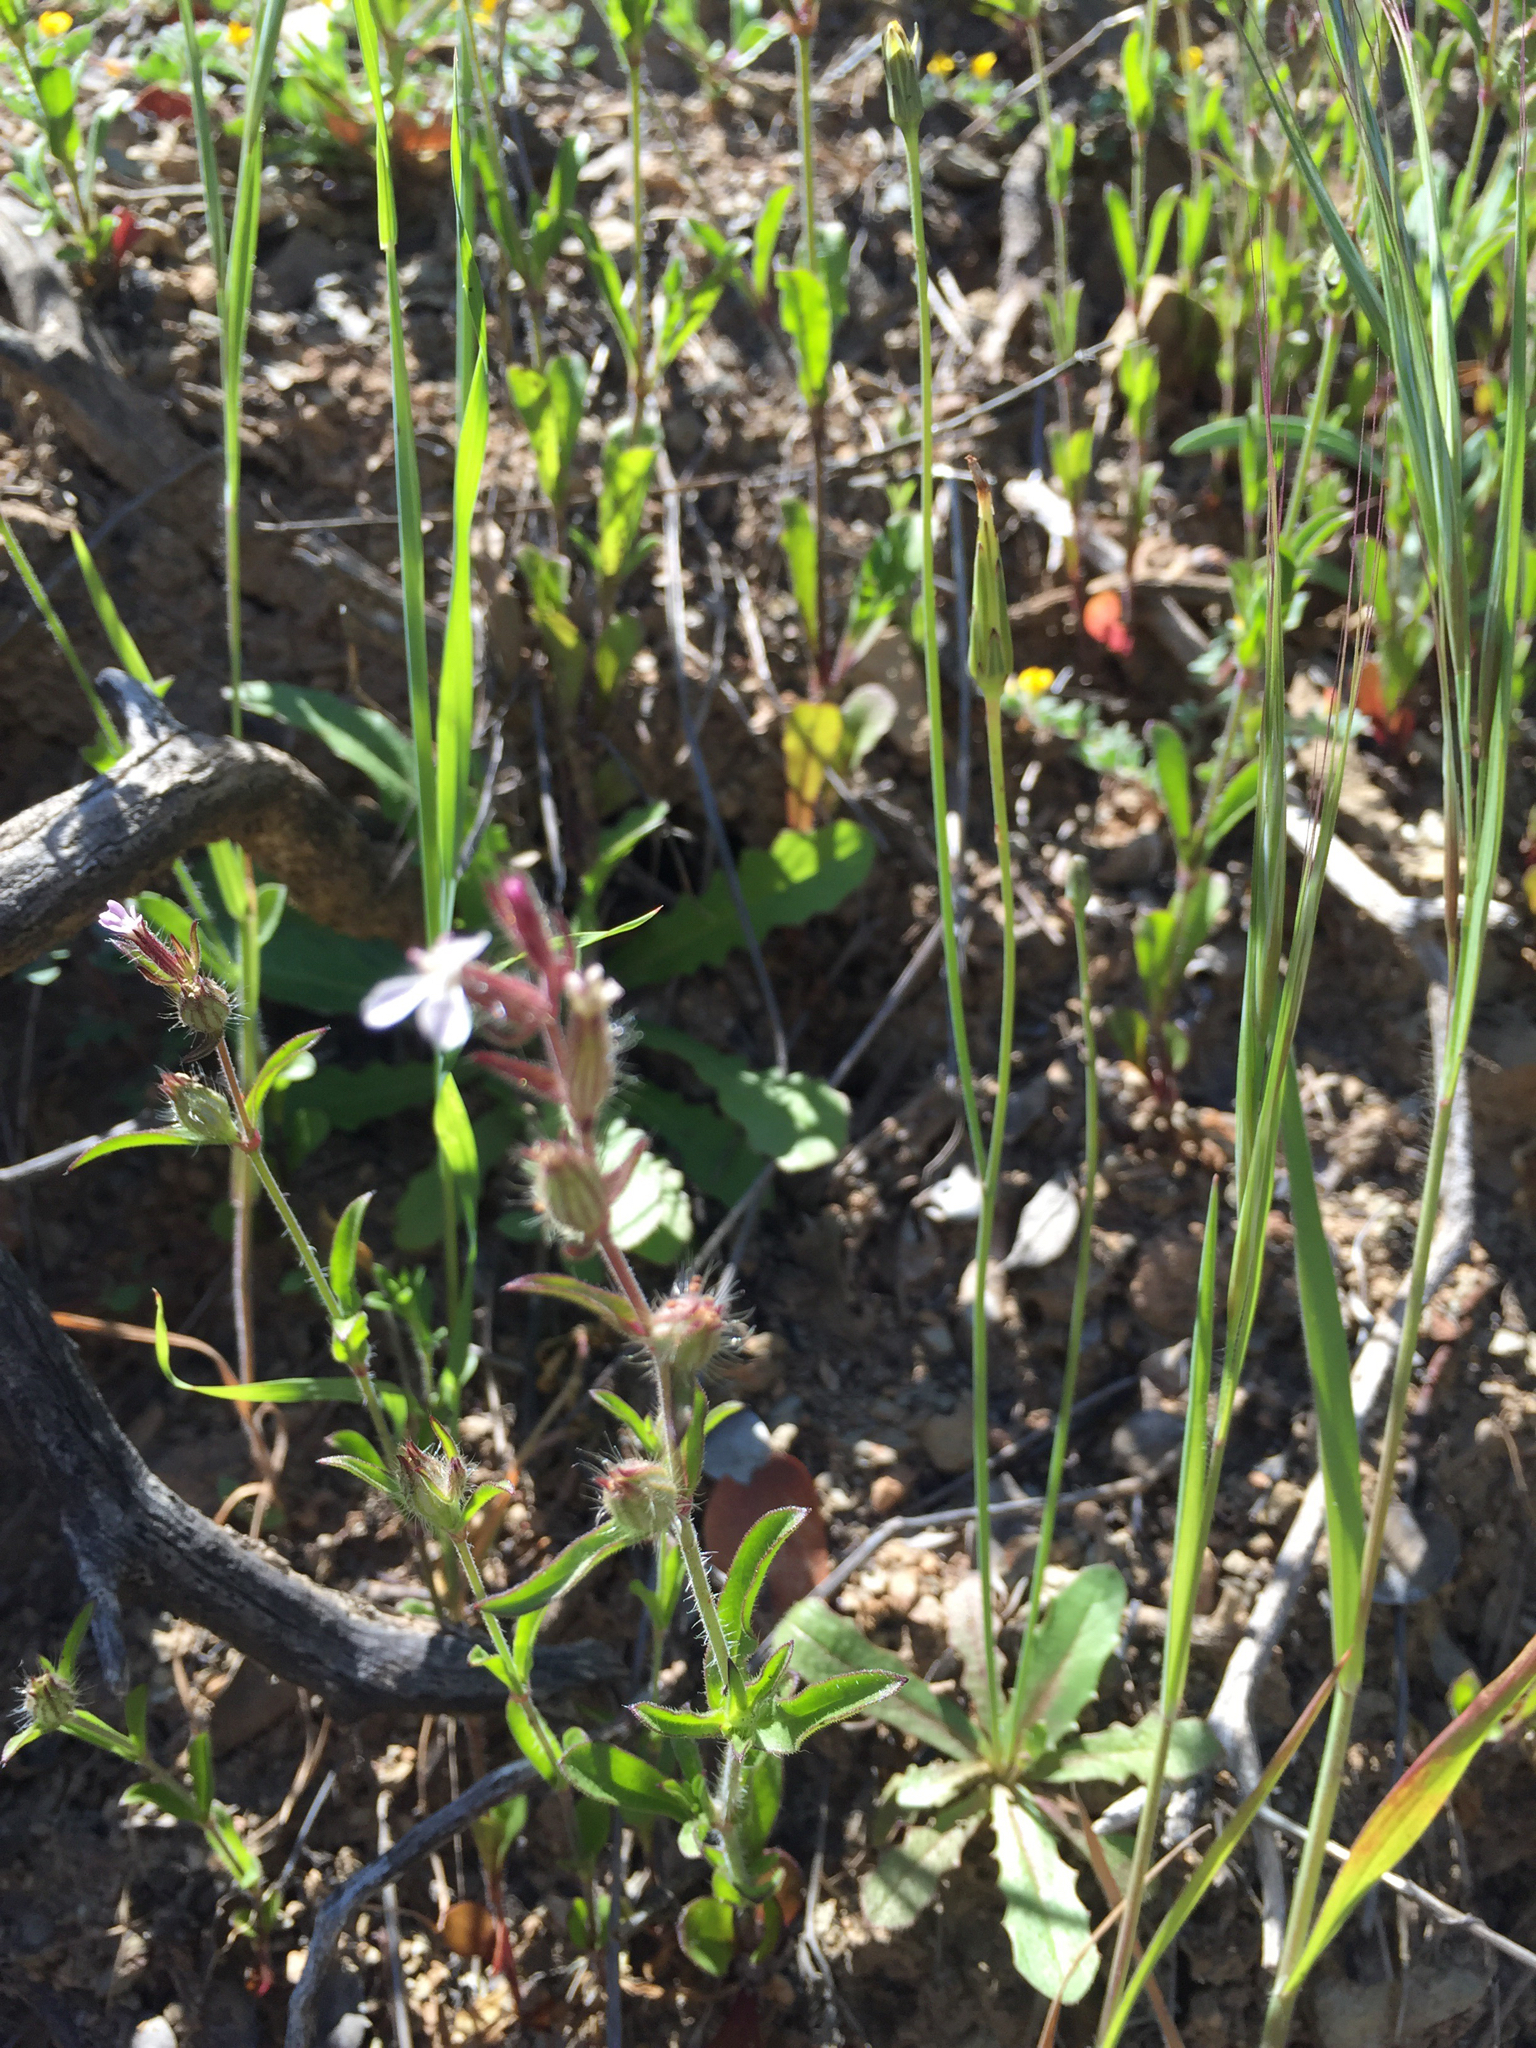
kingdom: Plantae
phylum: Tracheophyta
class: Magnoliopsida
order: Caryophyllales
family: Caryophyllaceae
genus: Silene
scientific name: Silene gallica
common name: Small-flowered catchfly
